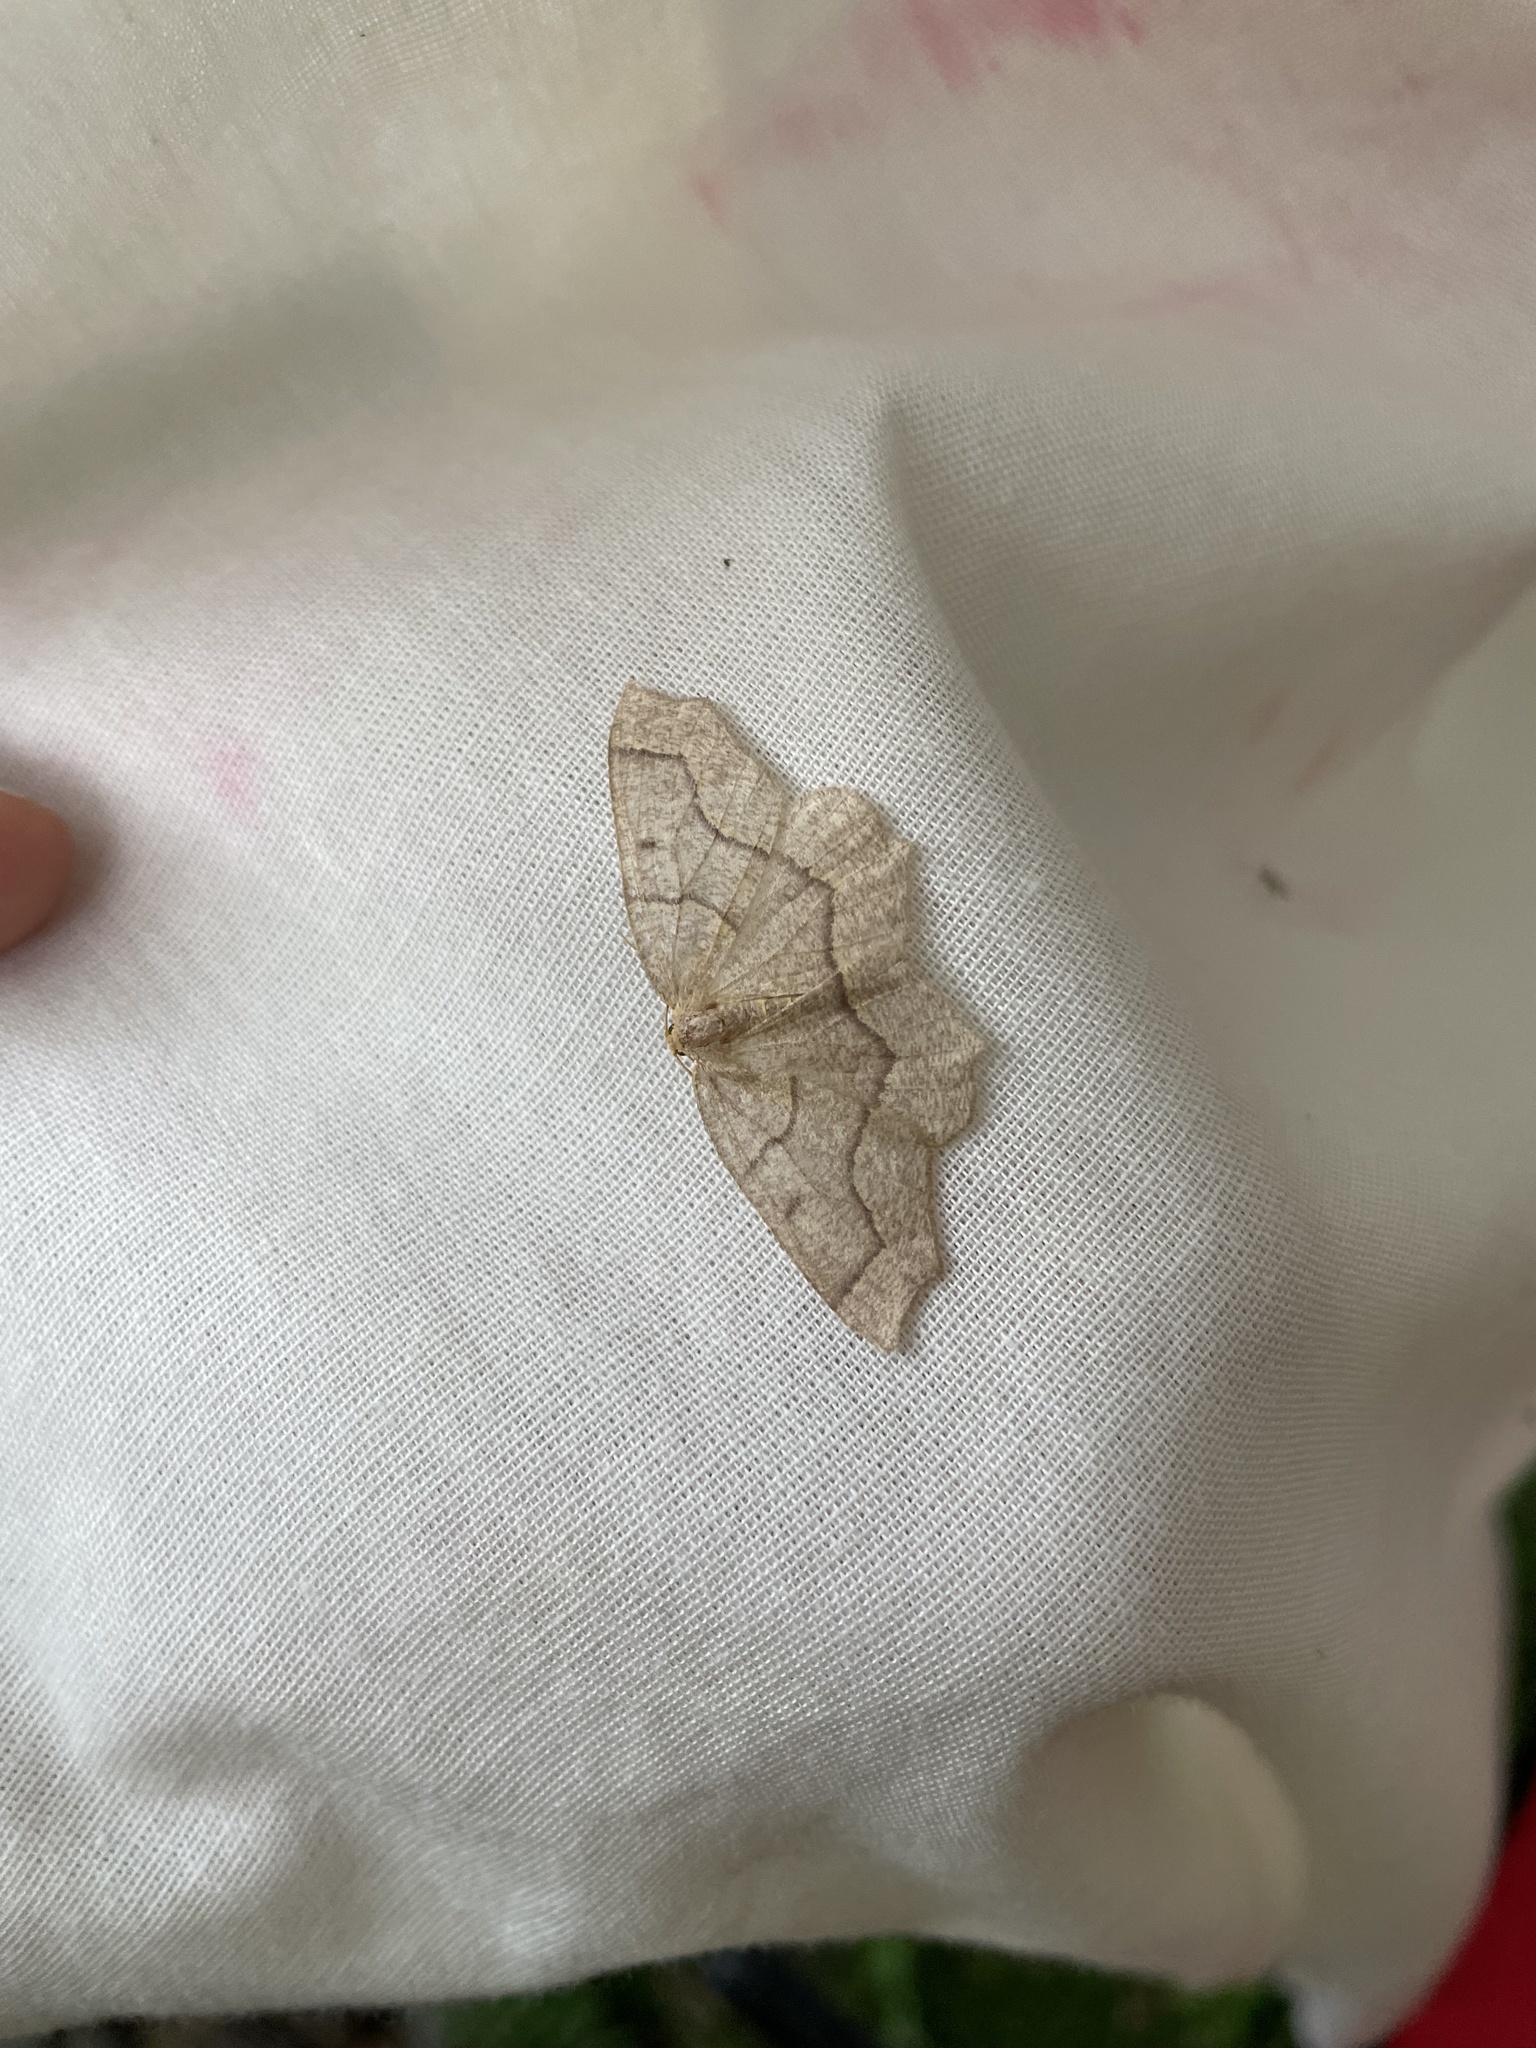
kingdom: Animalia
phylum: Arthropoda
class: Insecta
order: Lepidoptera
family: Geometridae
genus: Lambdina
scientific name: Lambdina fiscellaria
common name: Hemlock looper
